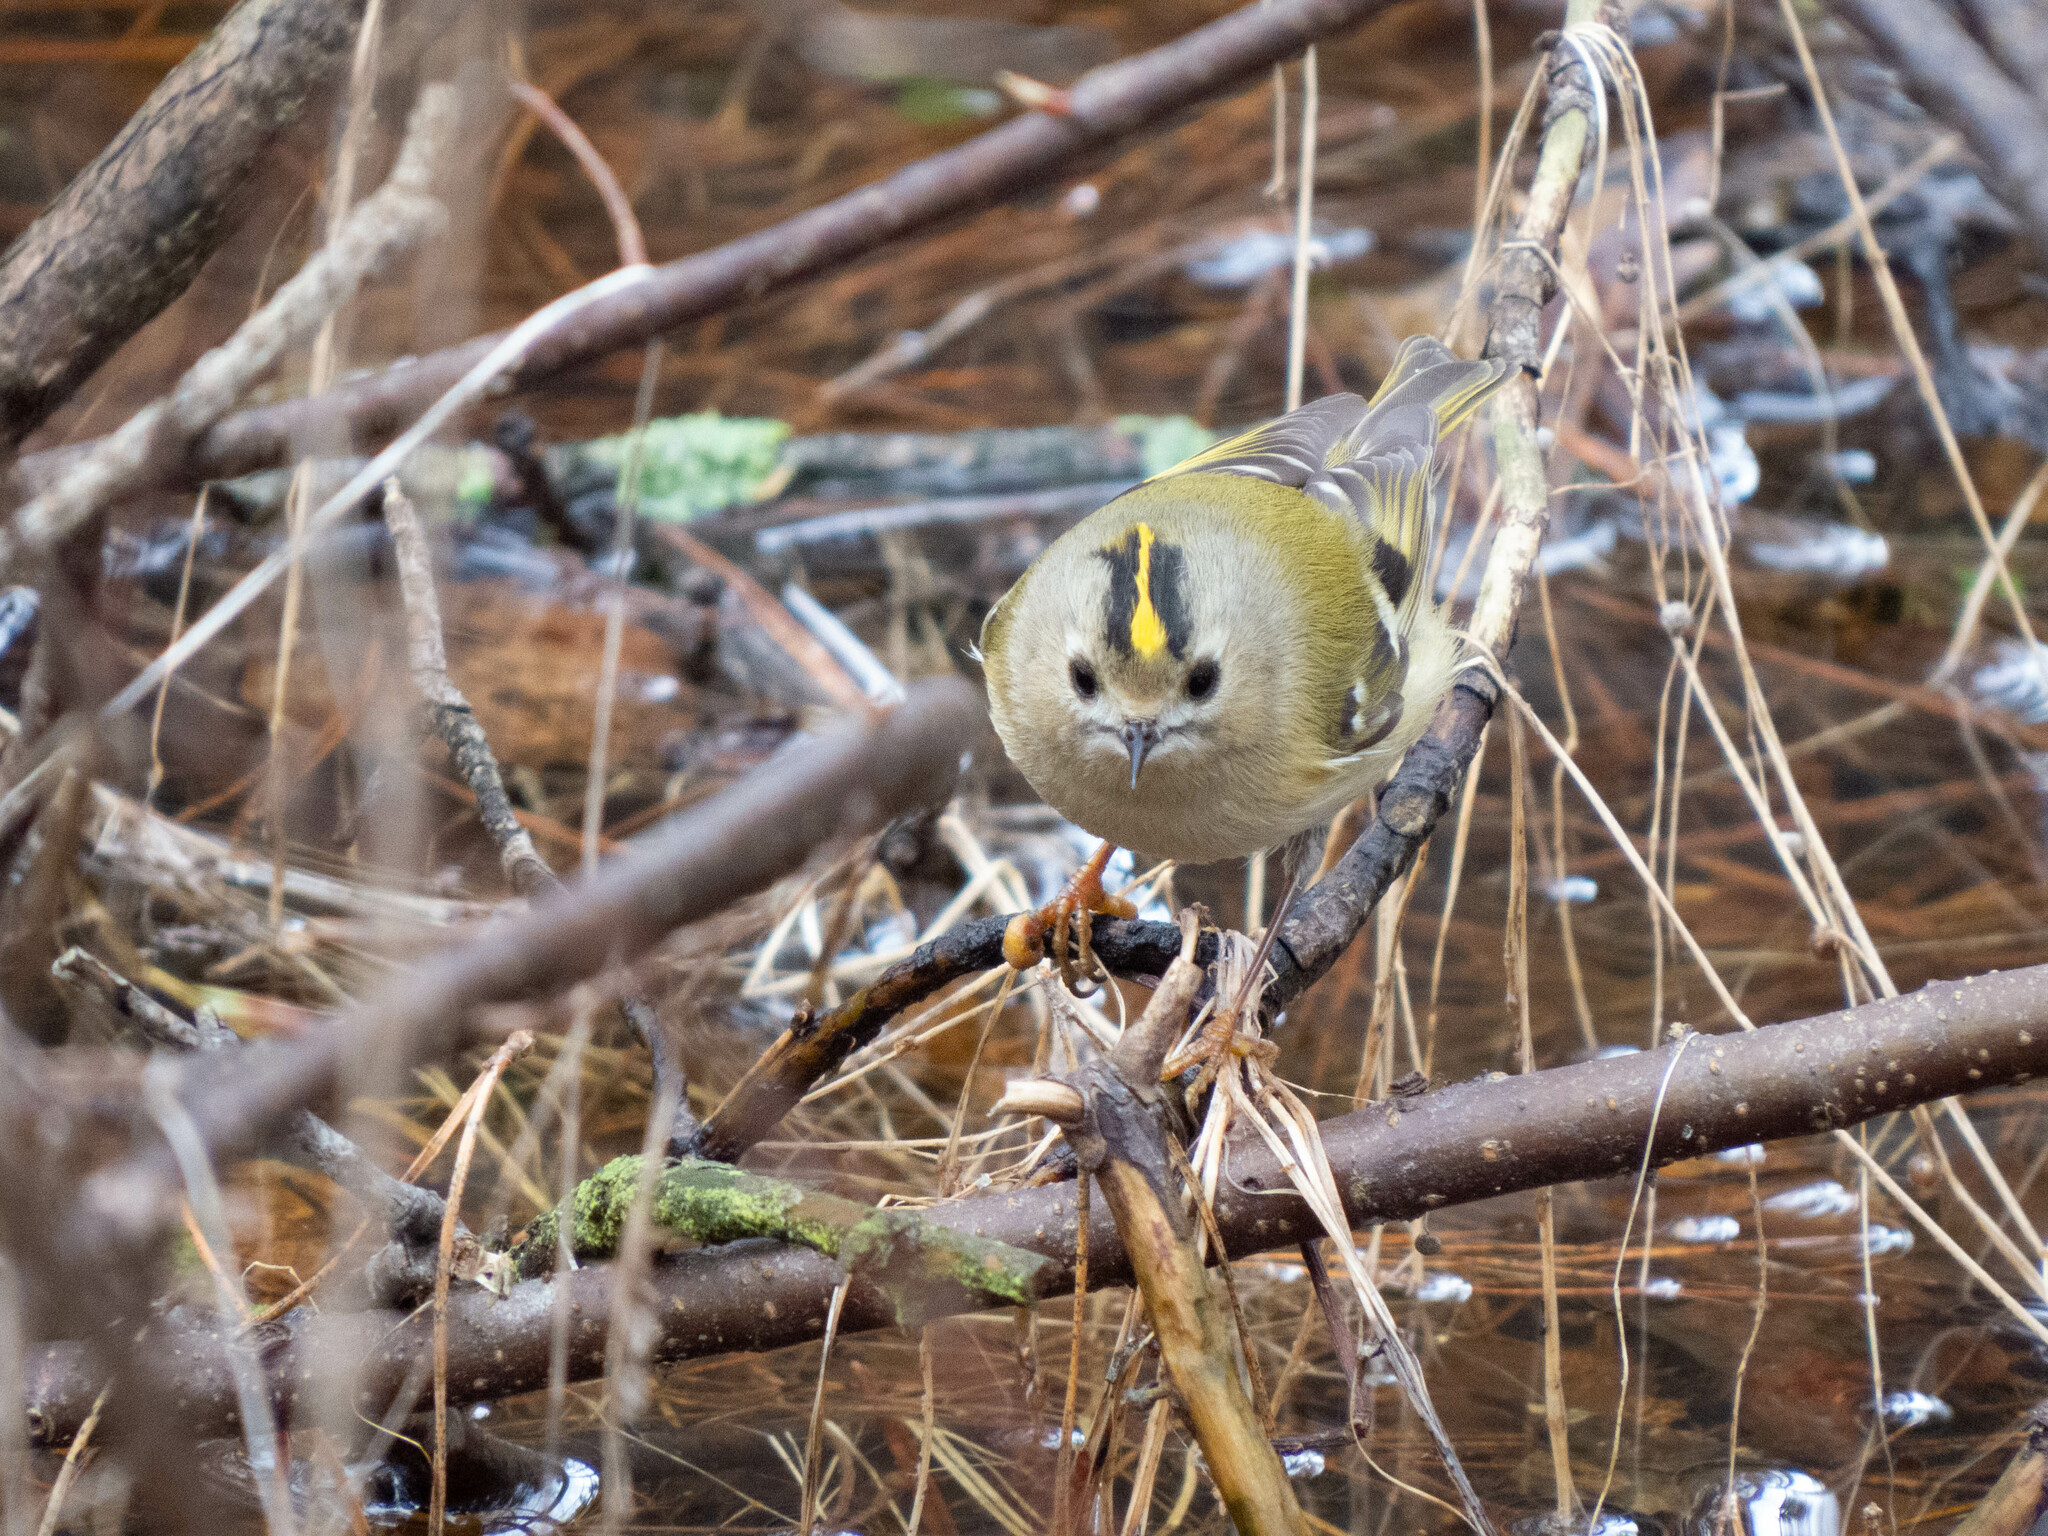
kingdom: Animalia
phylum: Chordata
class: Aves
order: Passeriformes
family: Regulidae
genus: Regulus
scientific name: Regulus regulus
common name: Goldcrest
